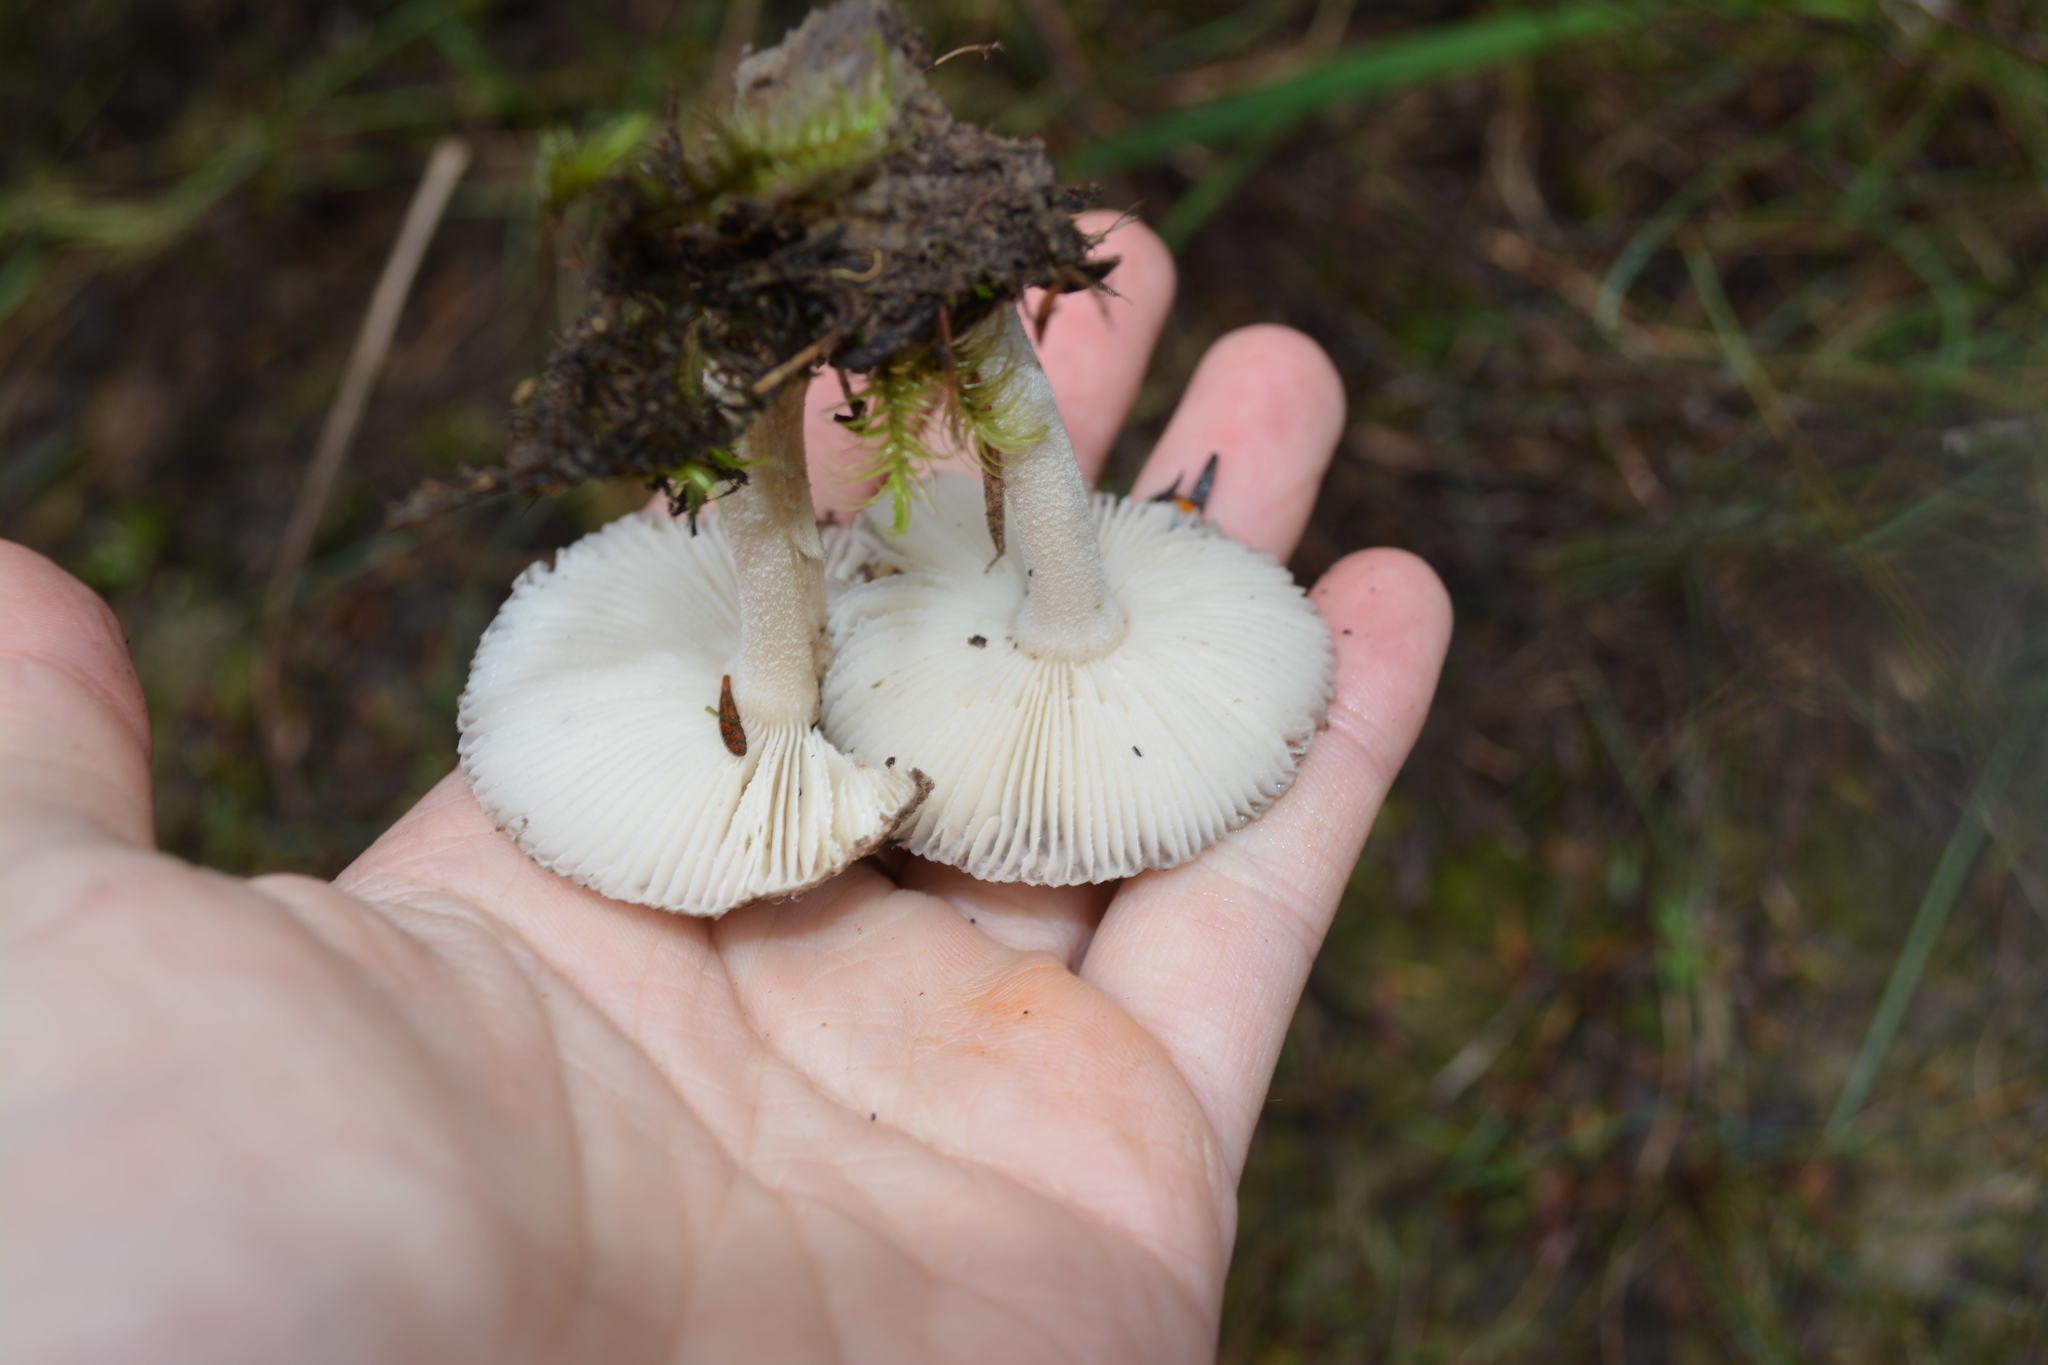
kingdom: Fungi
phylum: Basidiomycota
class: Agaricomycetes
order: Agaricales
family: Amanitaceae
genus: Amanita
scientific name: Amanita nehuta
